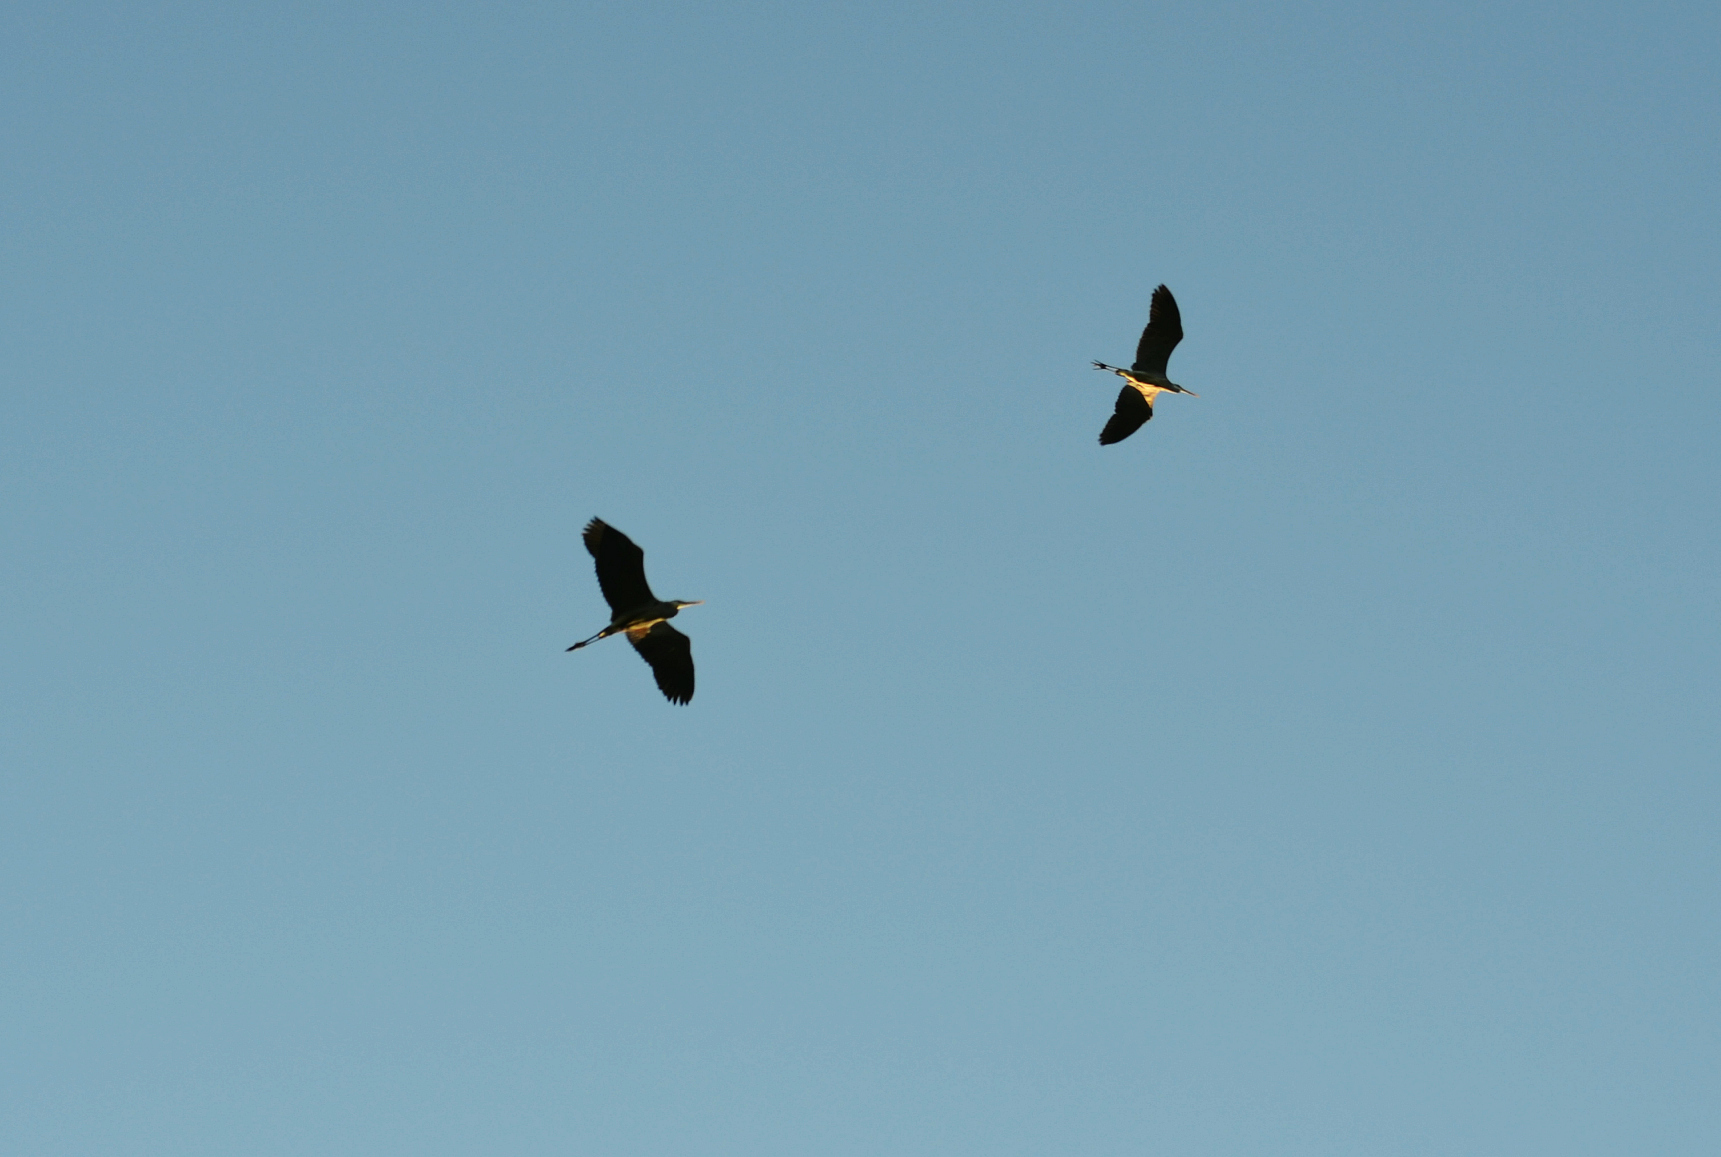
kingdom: Animalia
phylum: Chordata
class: Aves
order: Pelecaniformes
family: Ardeidae
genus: Ardea
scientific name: Ardea herodias
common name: Great blue heron
